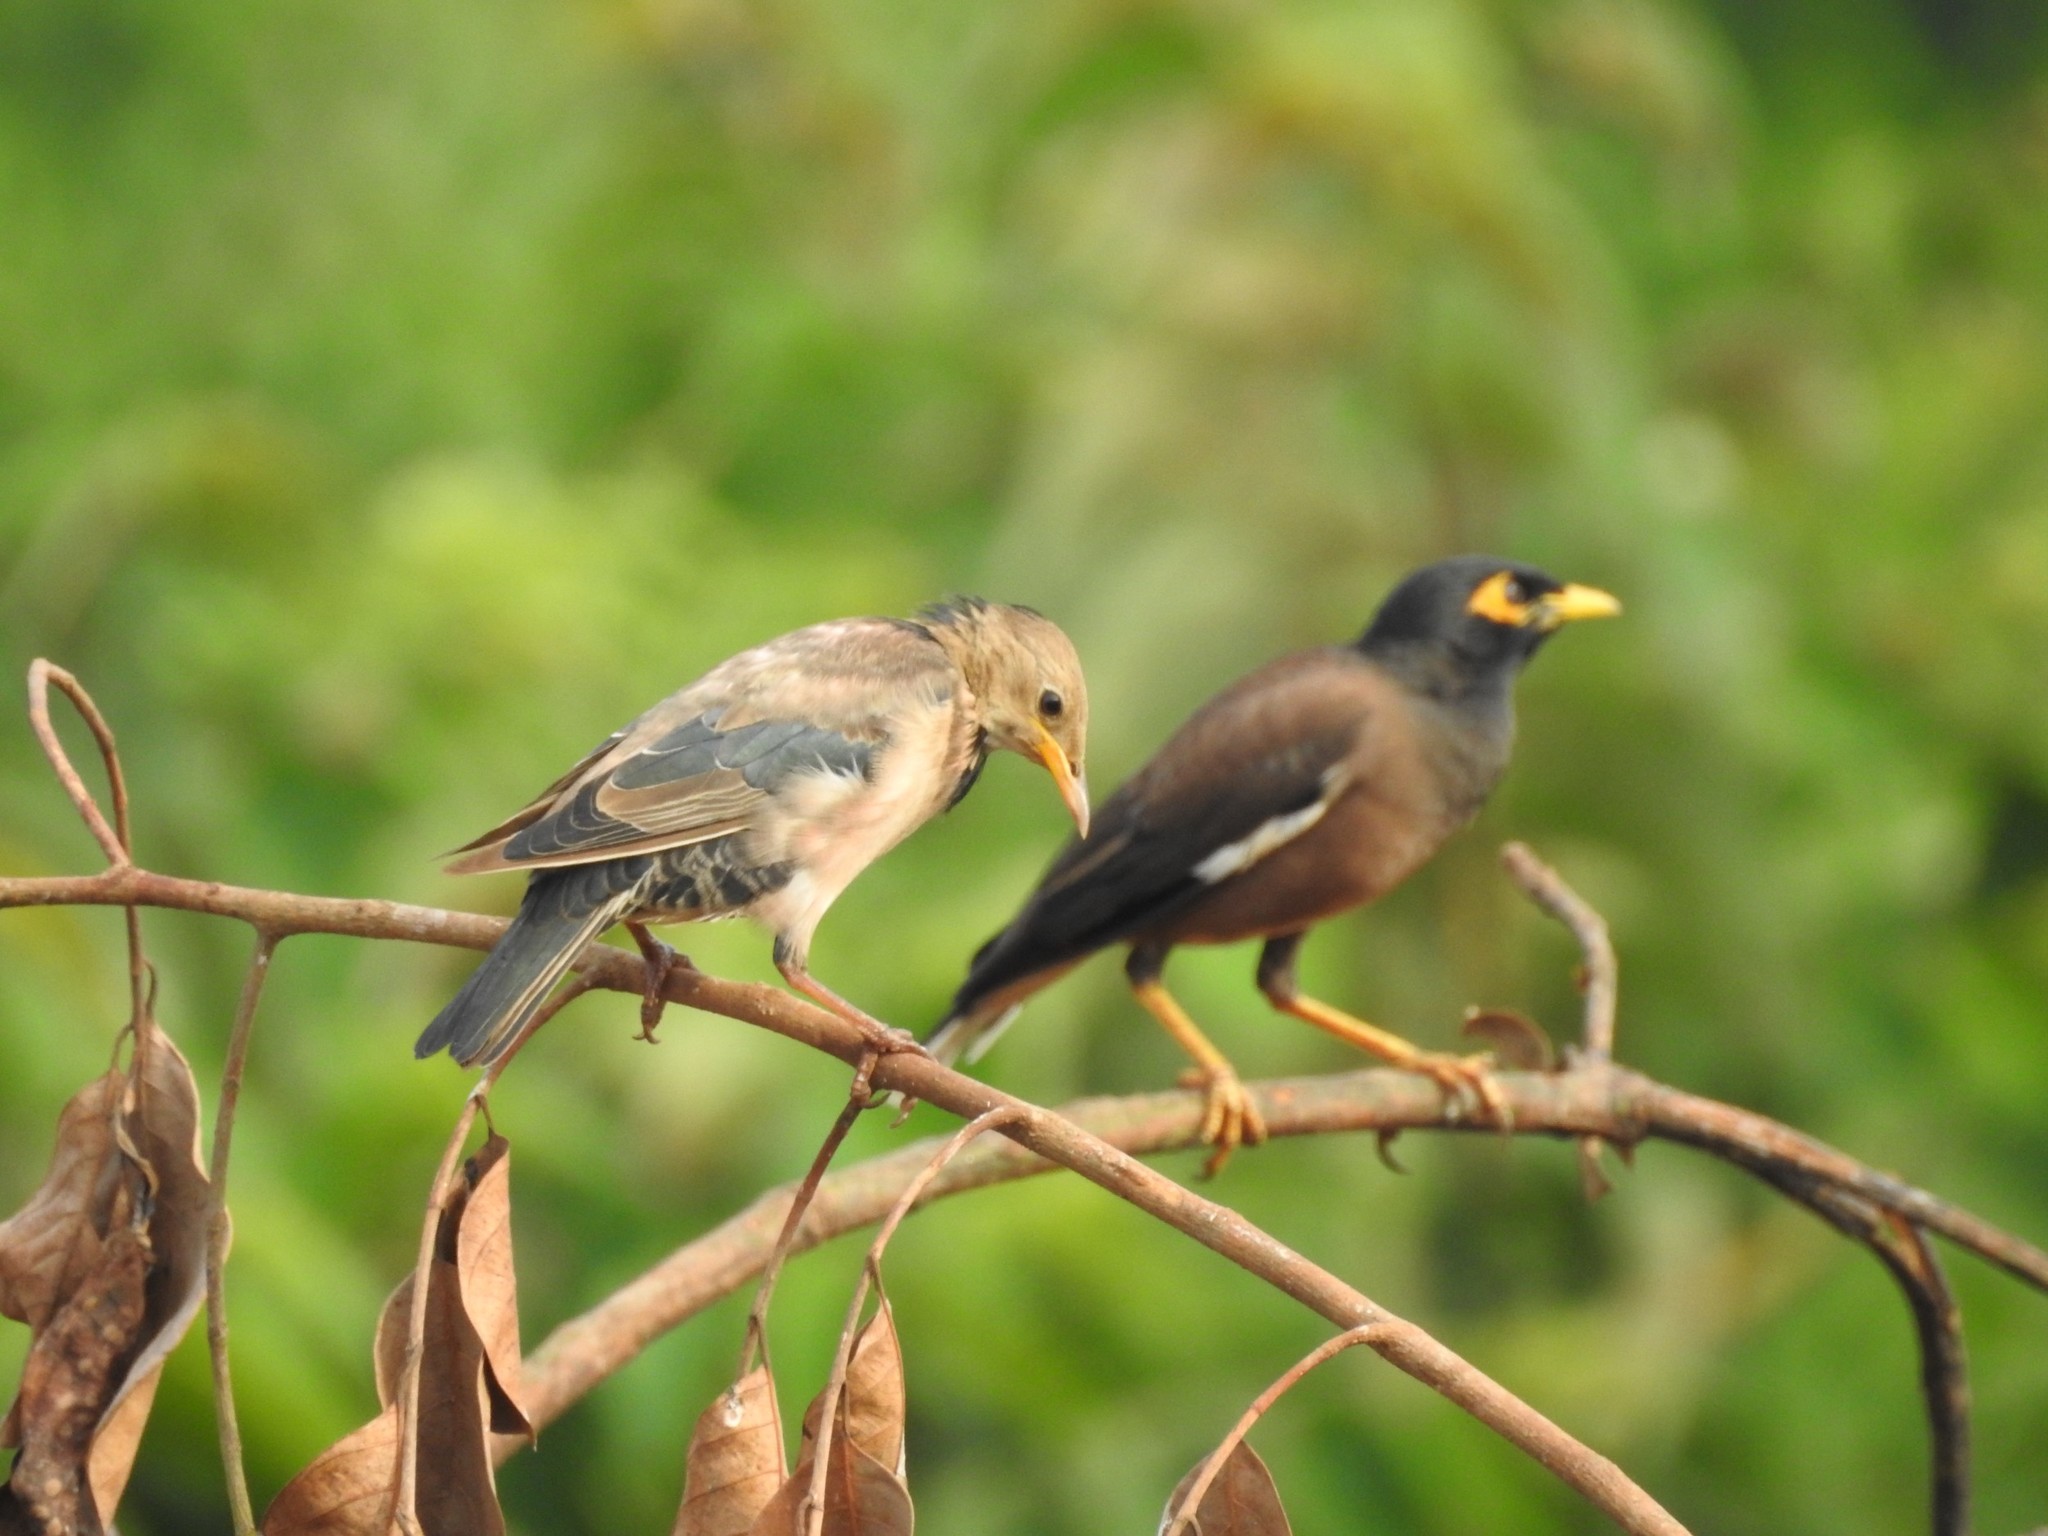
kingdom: Animalia
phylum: Chordata
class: Aves
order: Passeriformes
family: Sturnidae
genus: Acridotheres
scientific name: Acridotheres tristis
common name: Common myna
